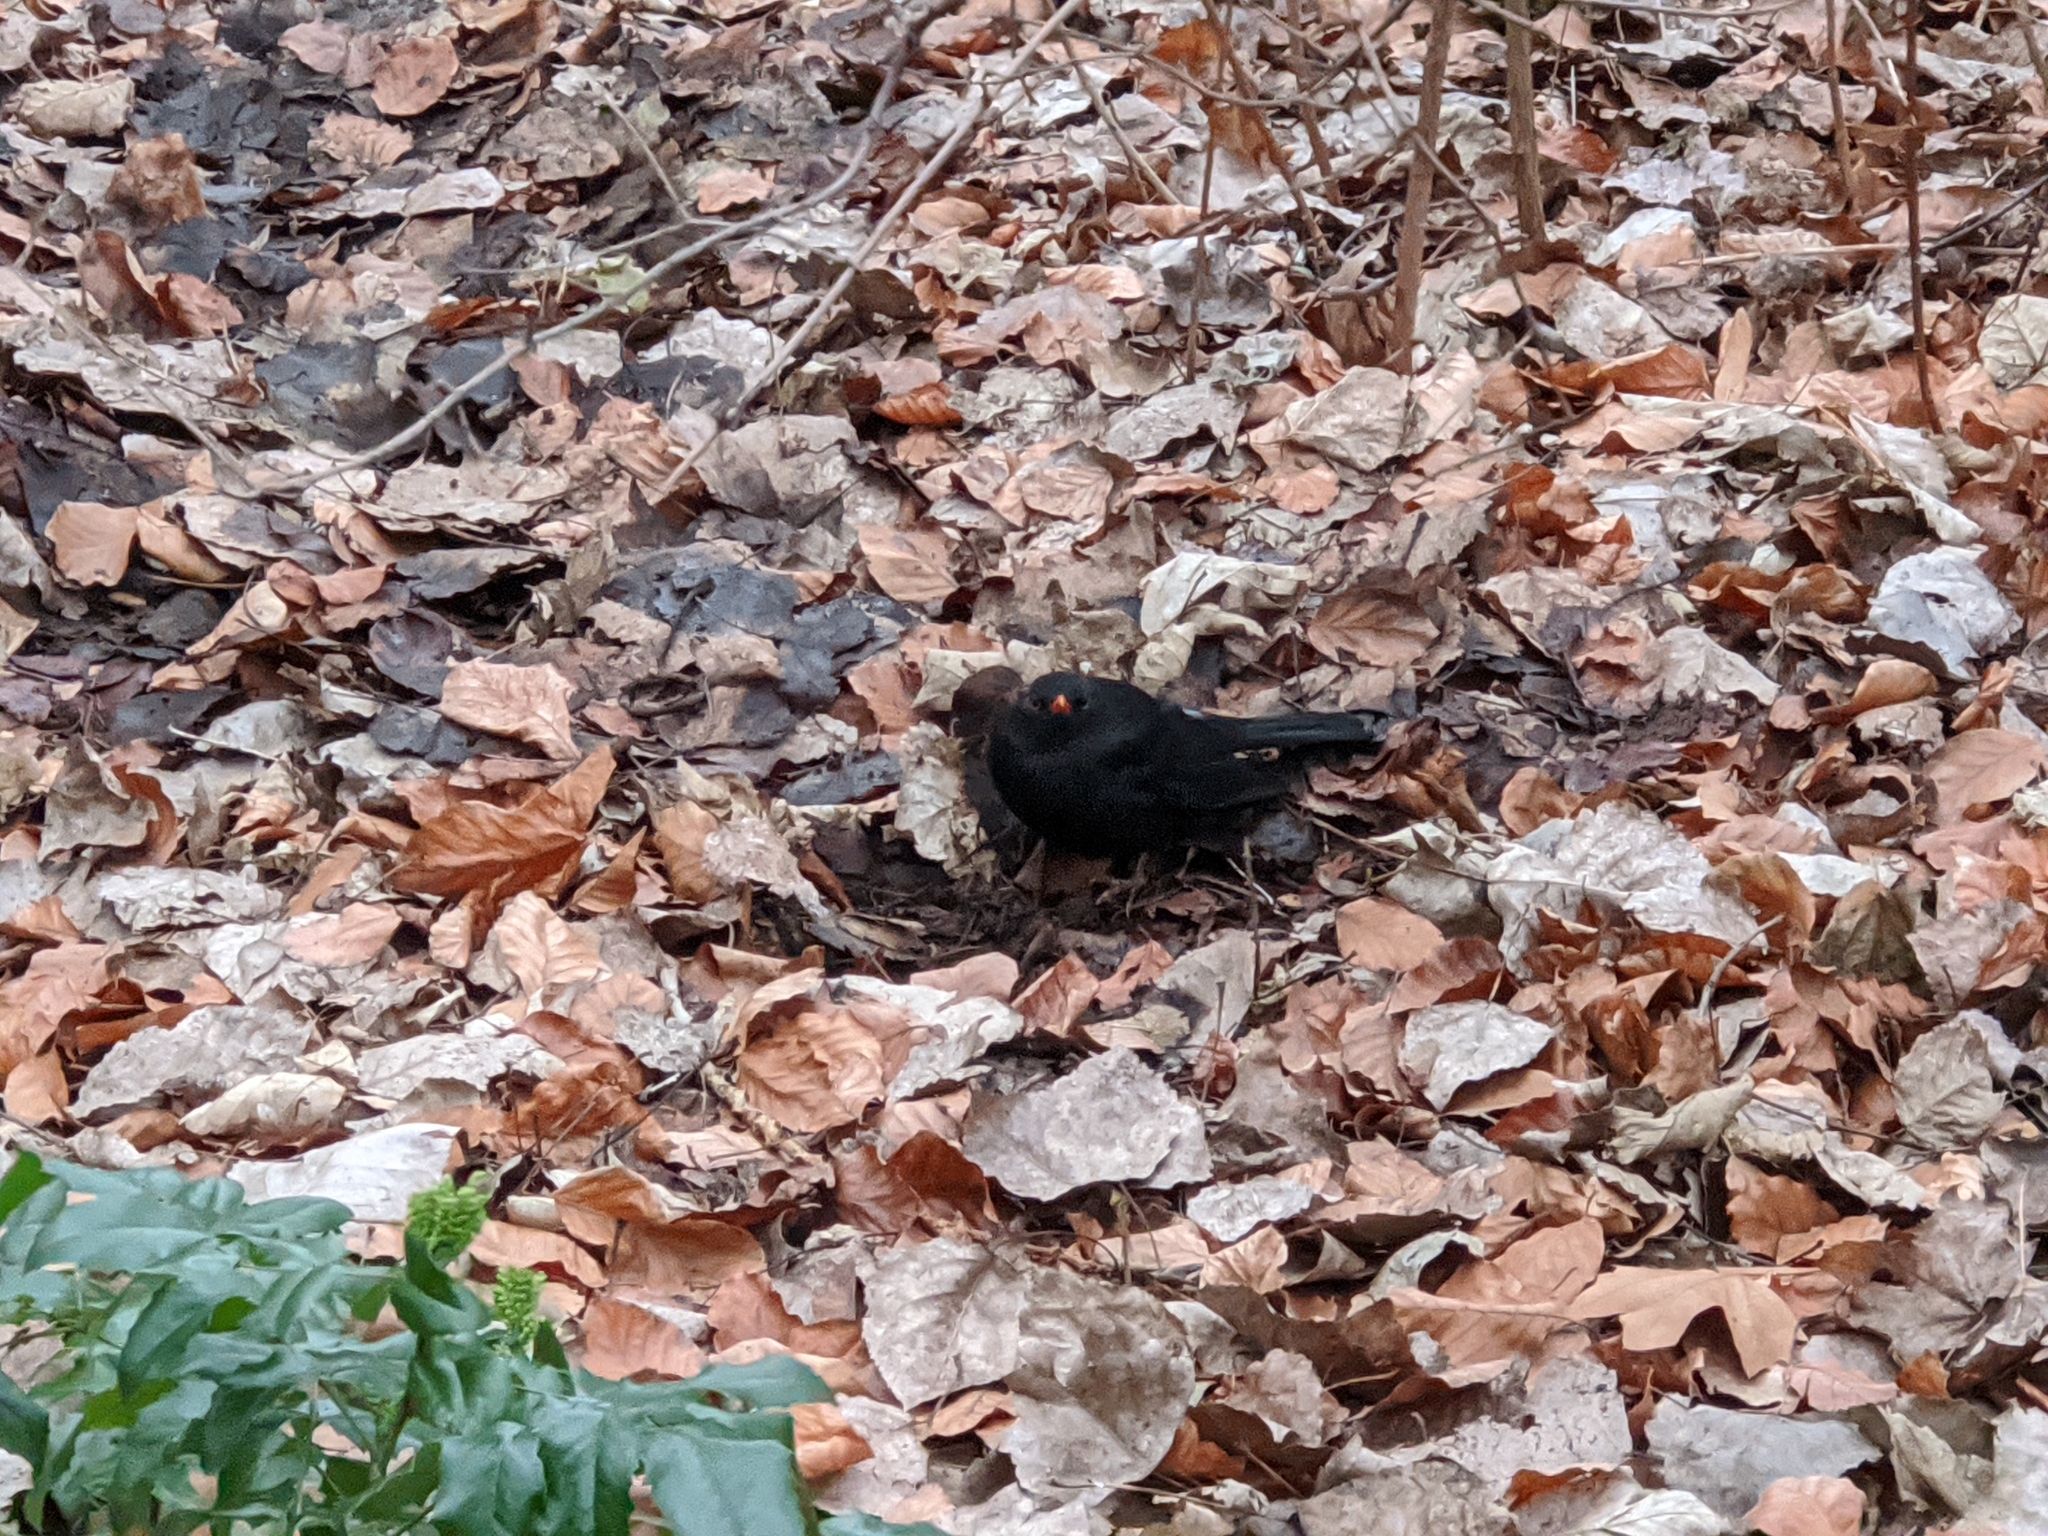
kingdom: Animalia
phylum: Chordata
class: Aves
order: Passeriformes
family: Turdidae
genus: Turdus
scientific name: Turdus merula
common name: Common blackbird
